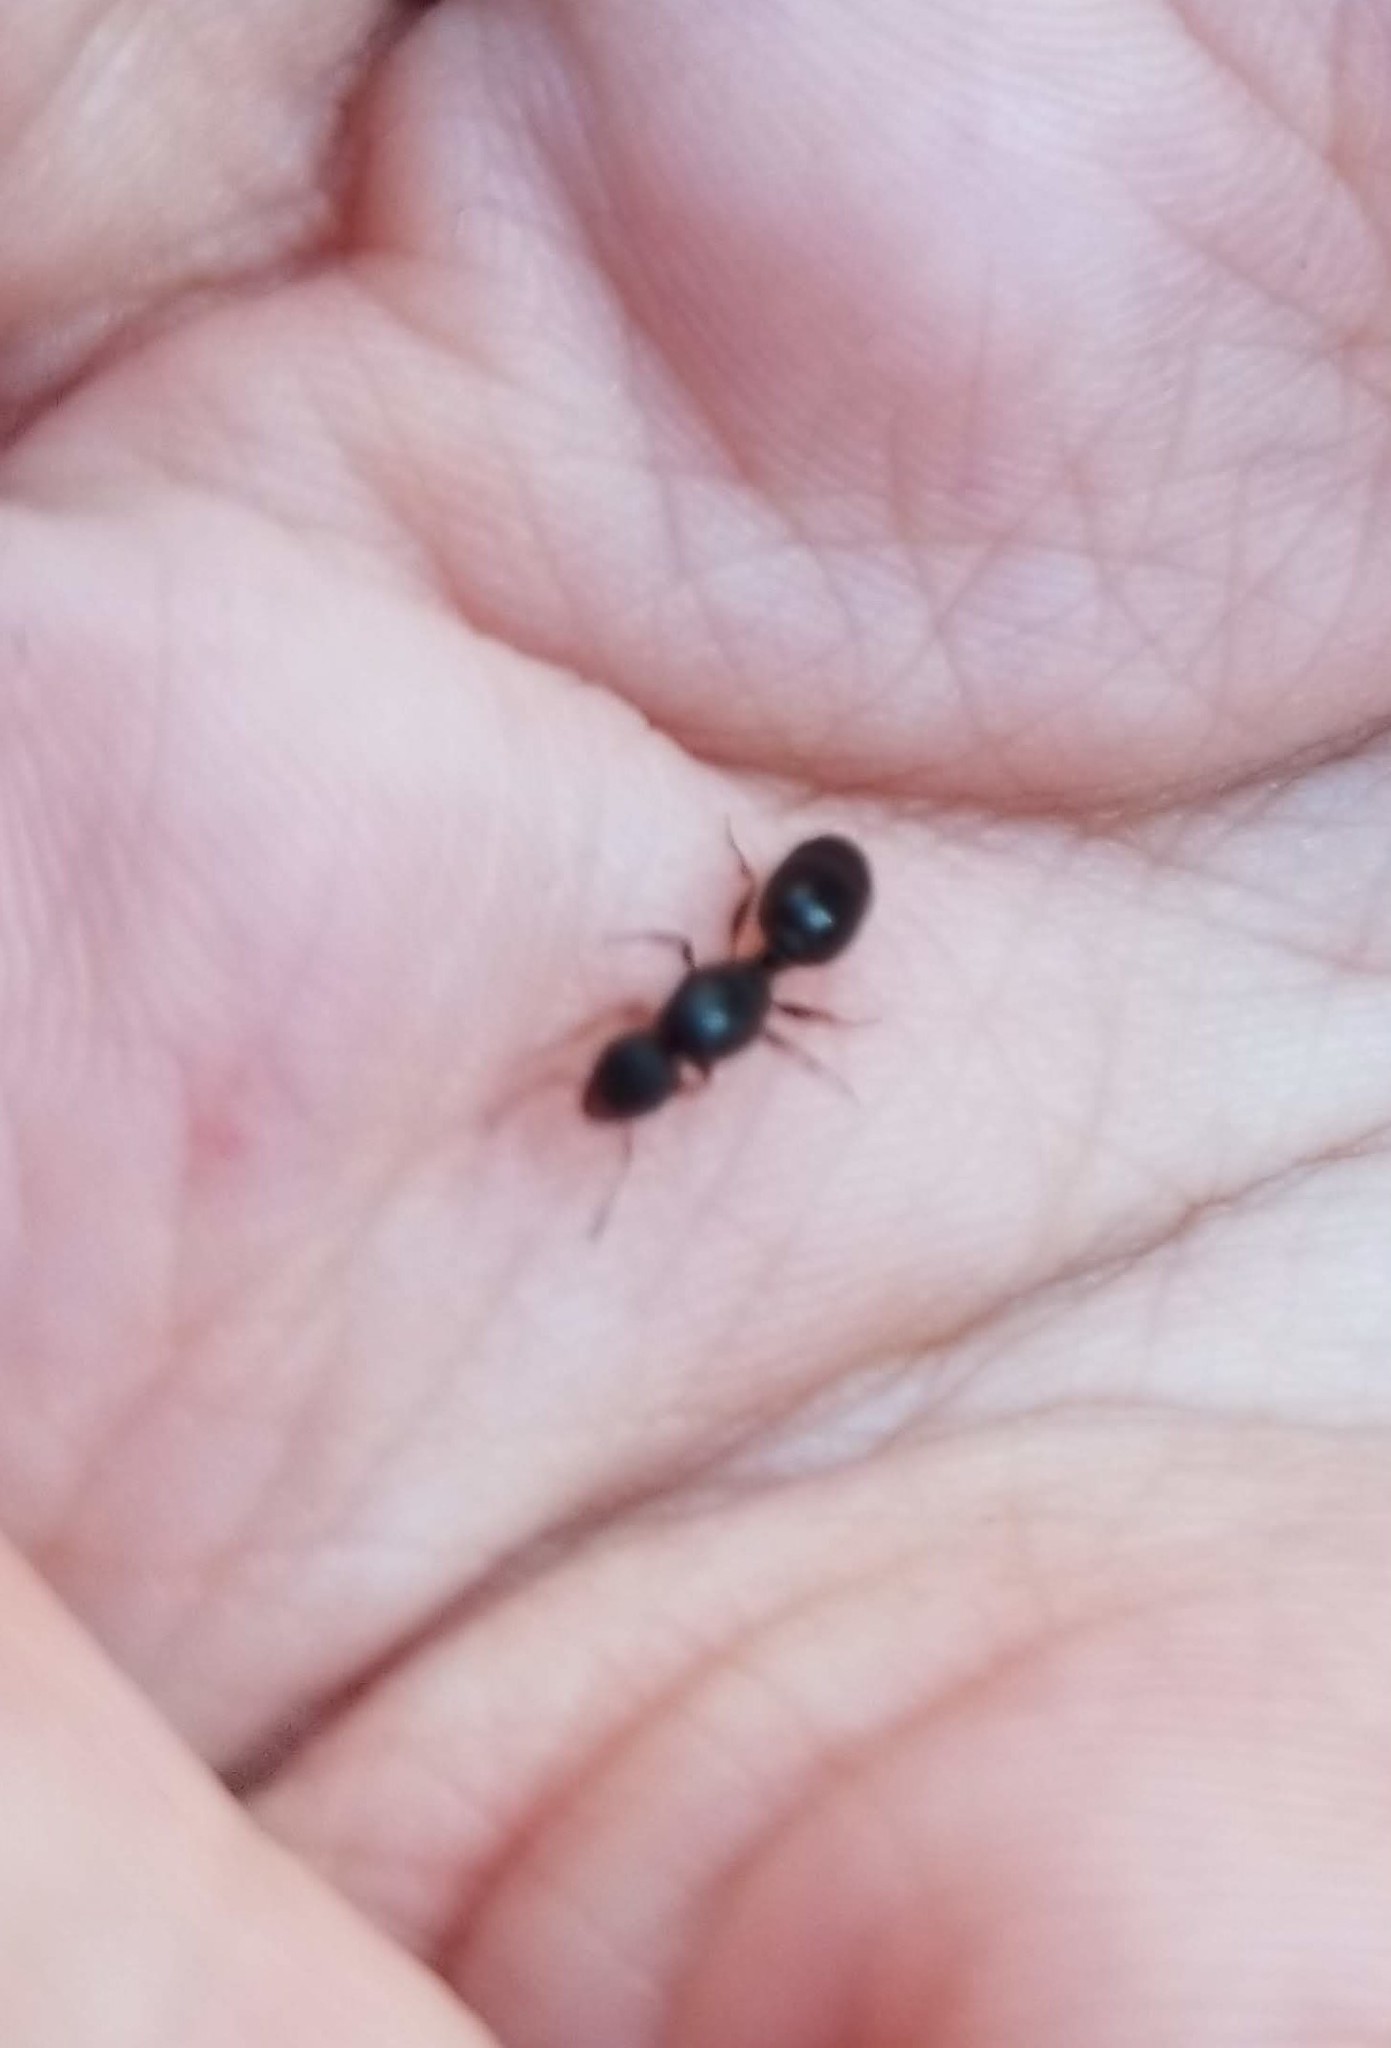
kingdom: Animalia
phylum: Arthropoda
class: Insecta
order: Hymenoptera
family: Formicidae
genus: Tetramorium
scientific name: Tetramorium immigrans
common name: Pavement ant
